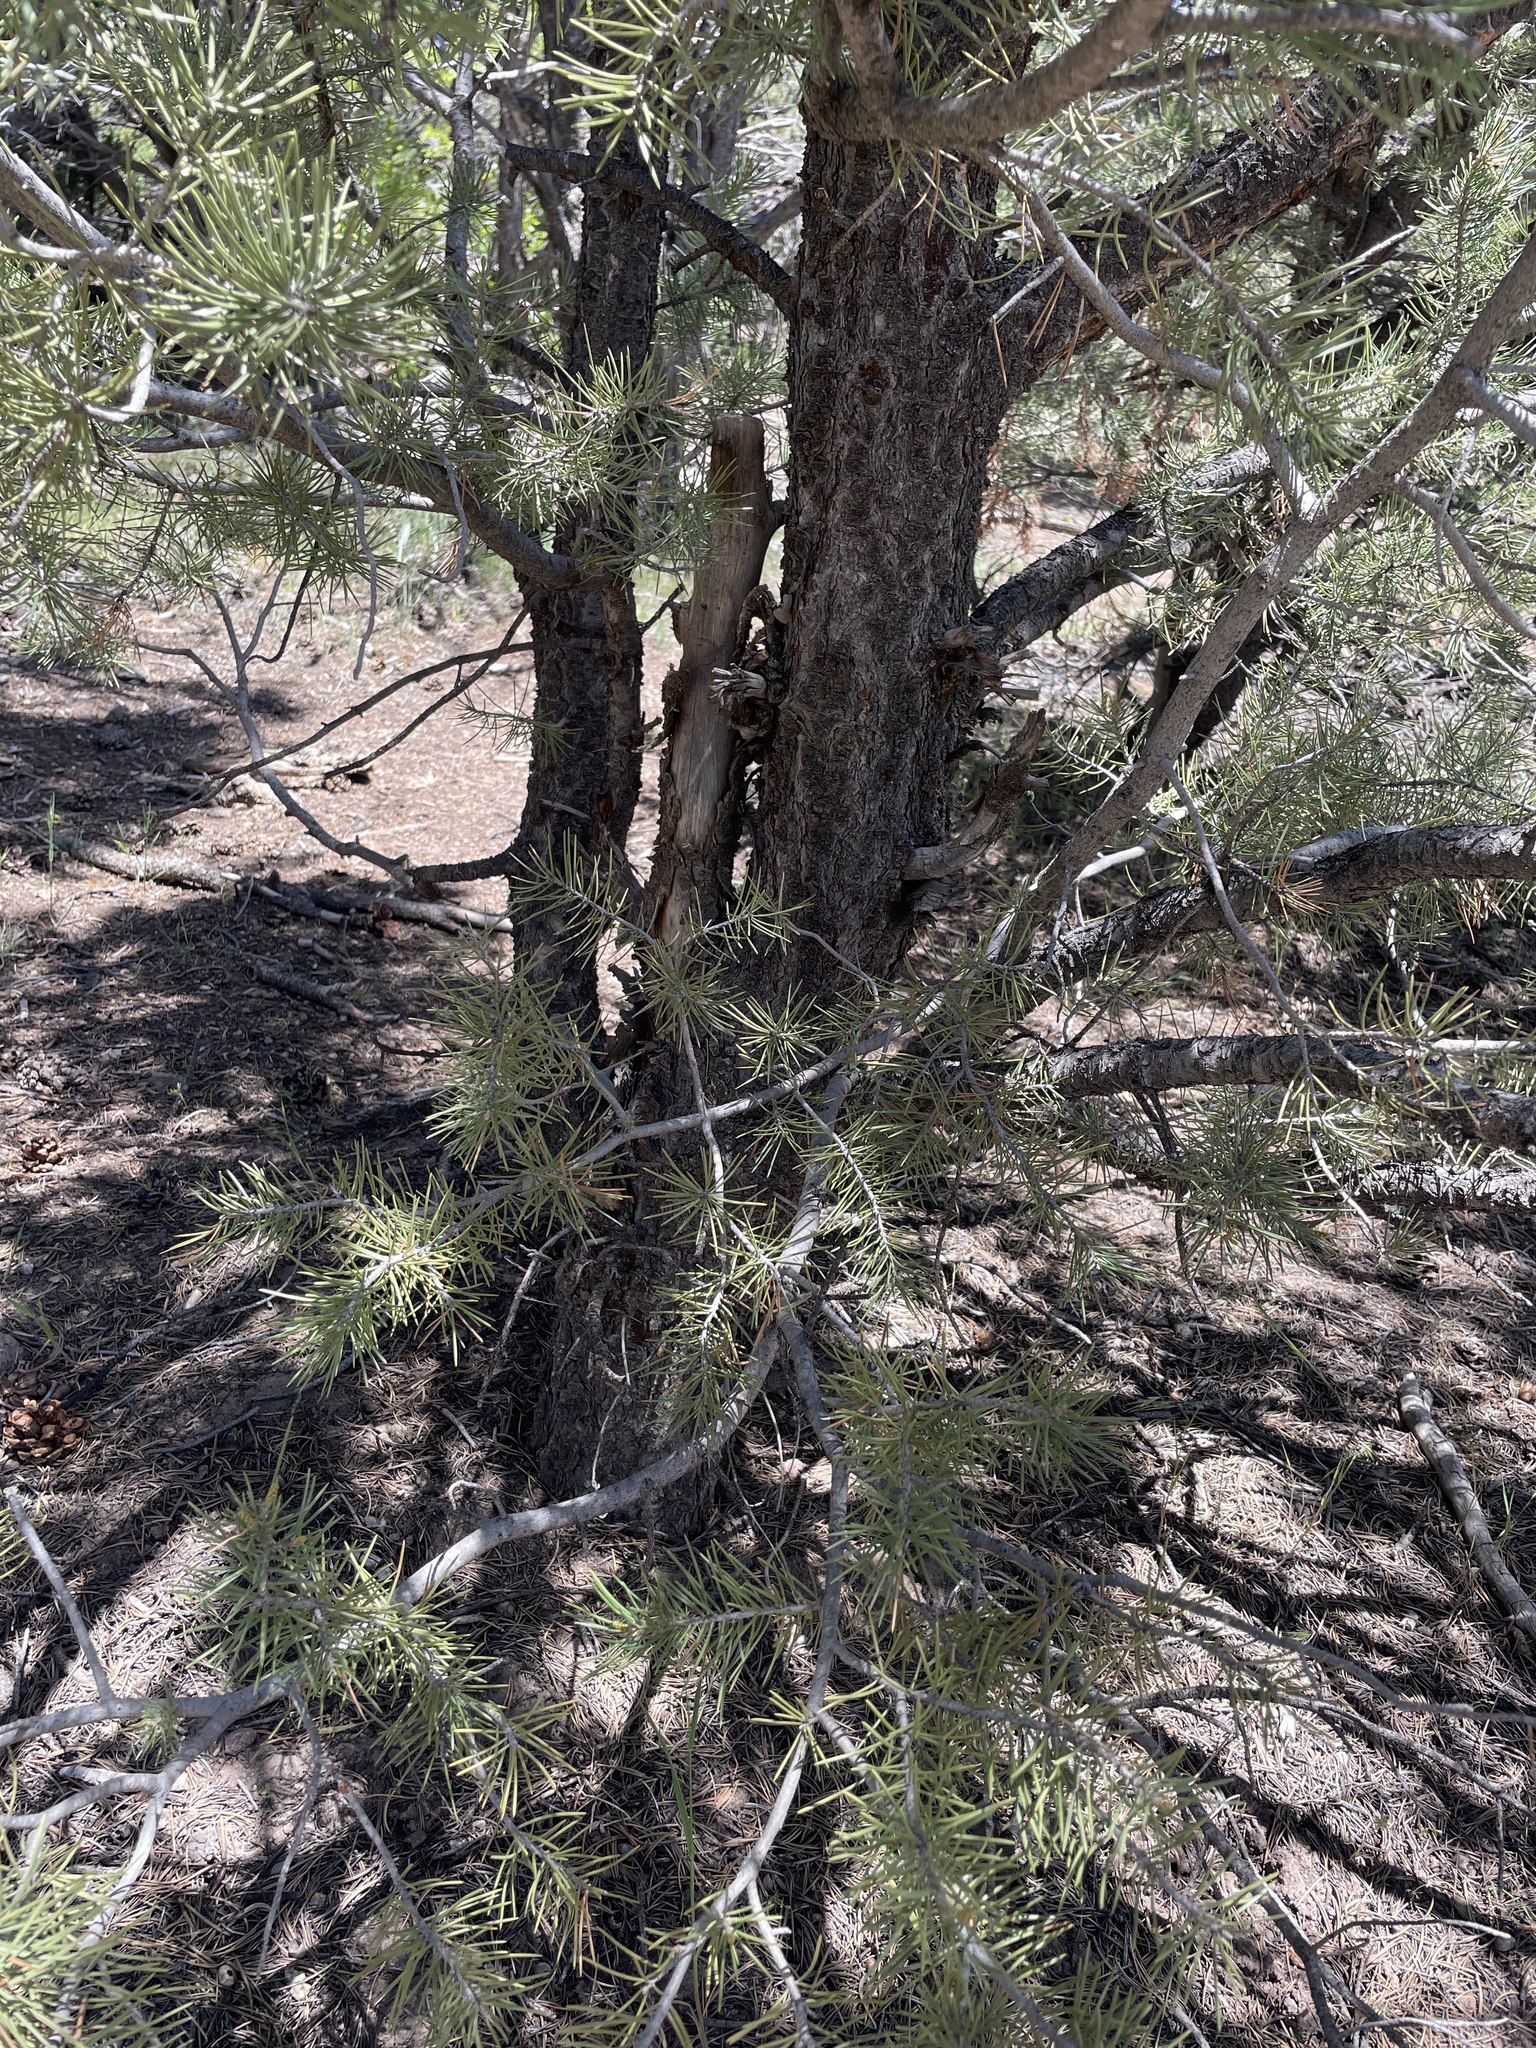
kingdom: Plantae
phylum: Tracheophyta
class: Pinopsida
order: Pinales
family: Pinaceae
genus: Pinus
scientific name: Pinus edulis
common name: Colorado pinyon
